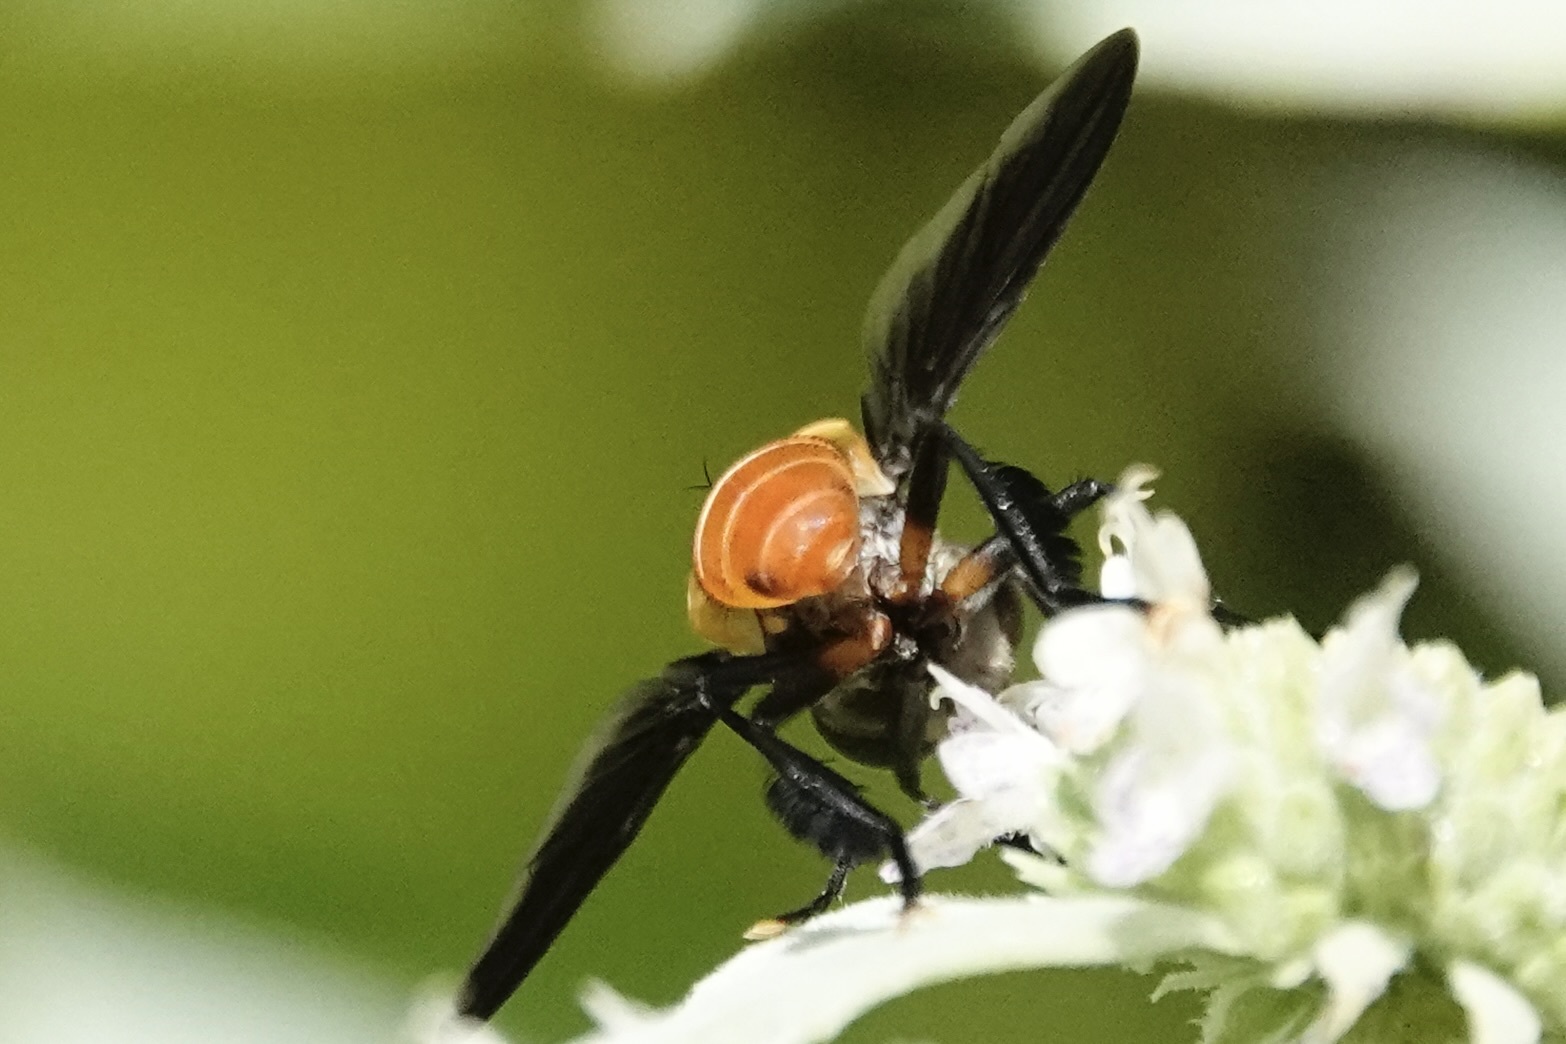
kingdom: Animalia
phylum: Arthropoda
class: Insecta
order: Diptera
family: Tachinidae
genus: Trichopoda
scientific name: Trichopoda pennipes
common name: Tachinid fly
